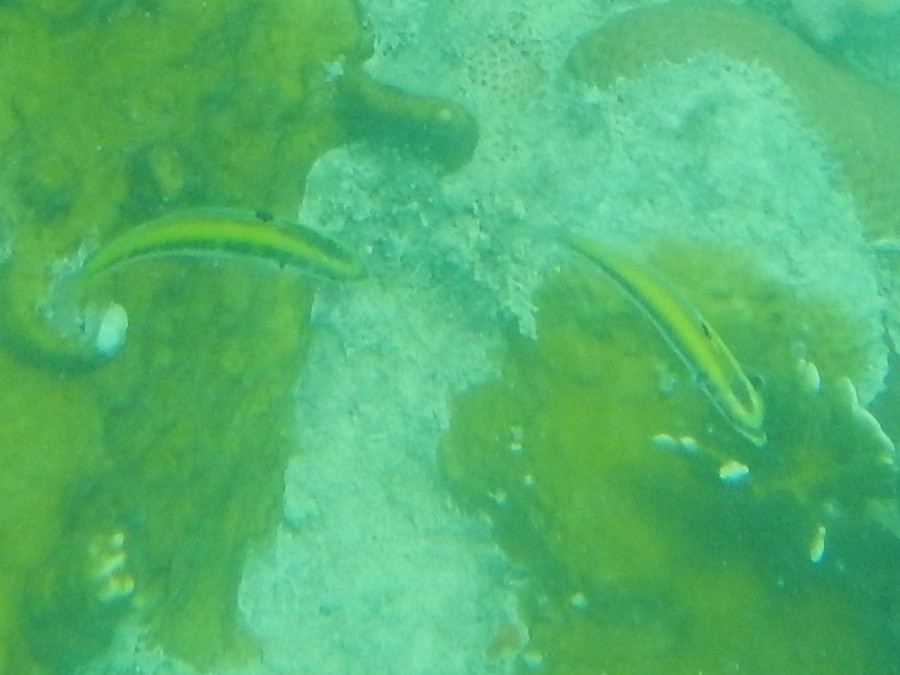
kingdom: Animalia
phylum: Chordata
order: Perciformes
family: Labridae
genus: Thalassoma
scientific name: Thalassoma bifasciatum
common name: Bluehead wrasse
